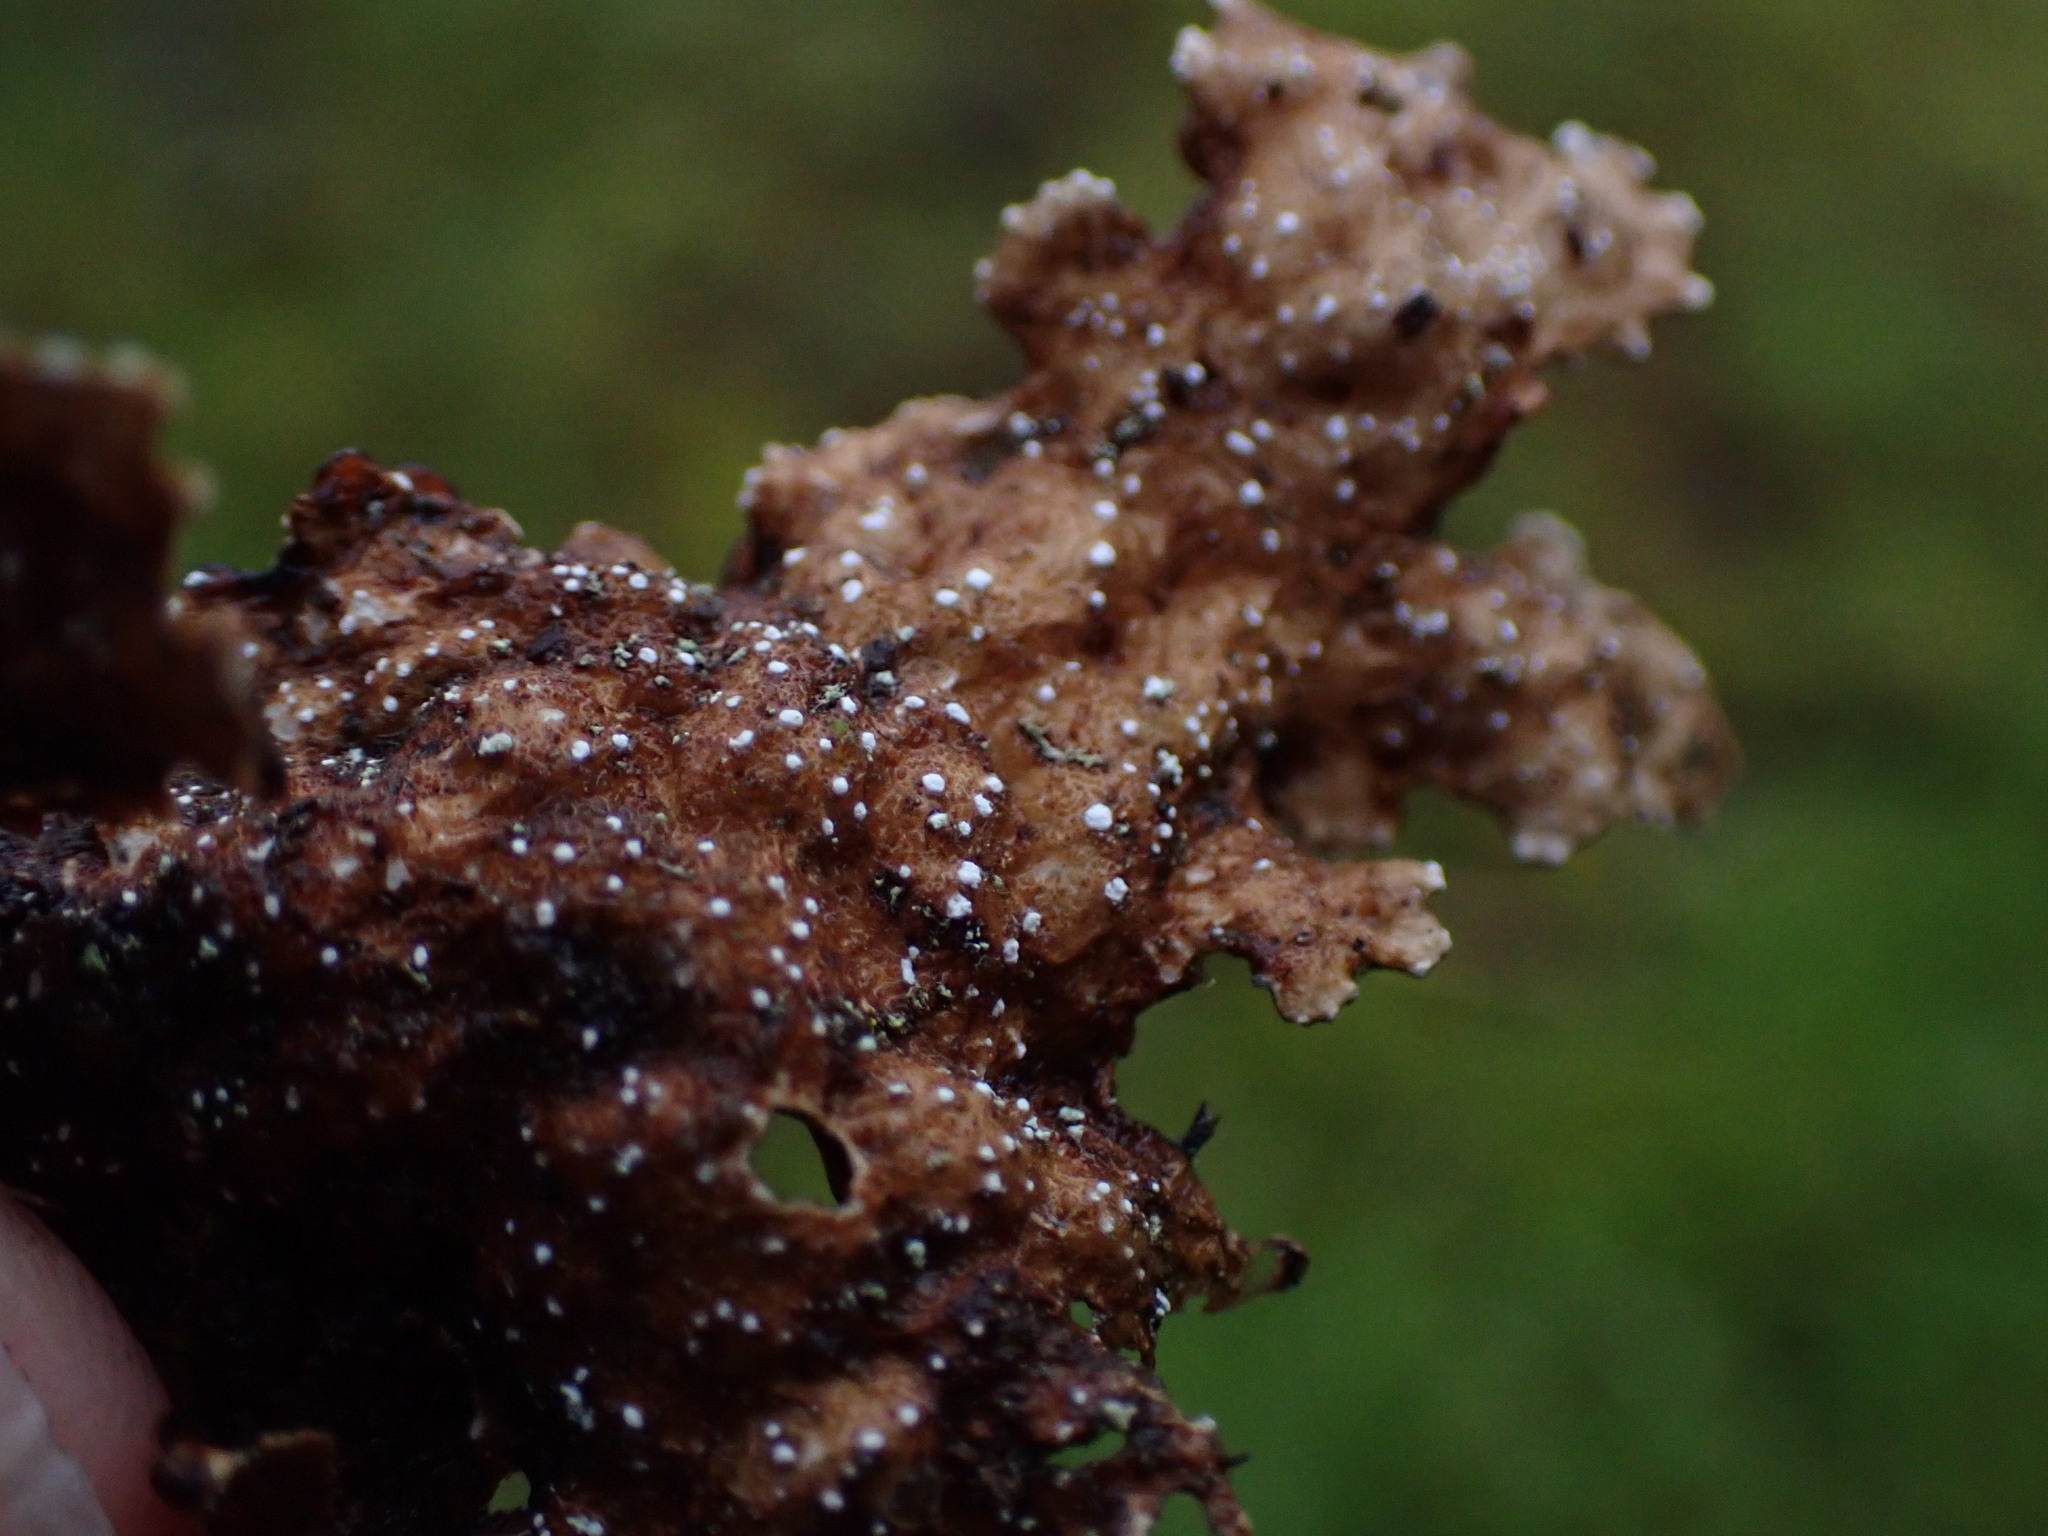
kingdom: Fungi
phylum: Ascomycota
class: Lecanoromycetes
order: Peltigerales
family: Lobariaceae
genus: Lobaria
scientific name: Lobaria anthraspis
